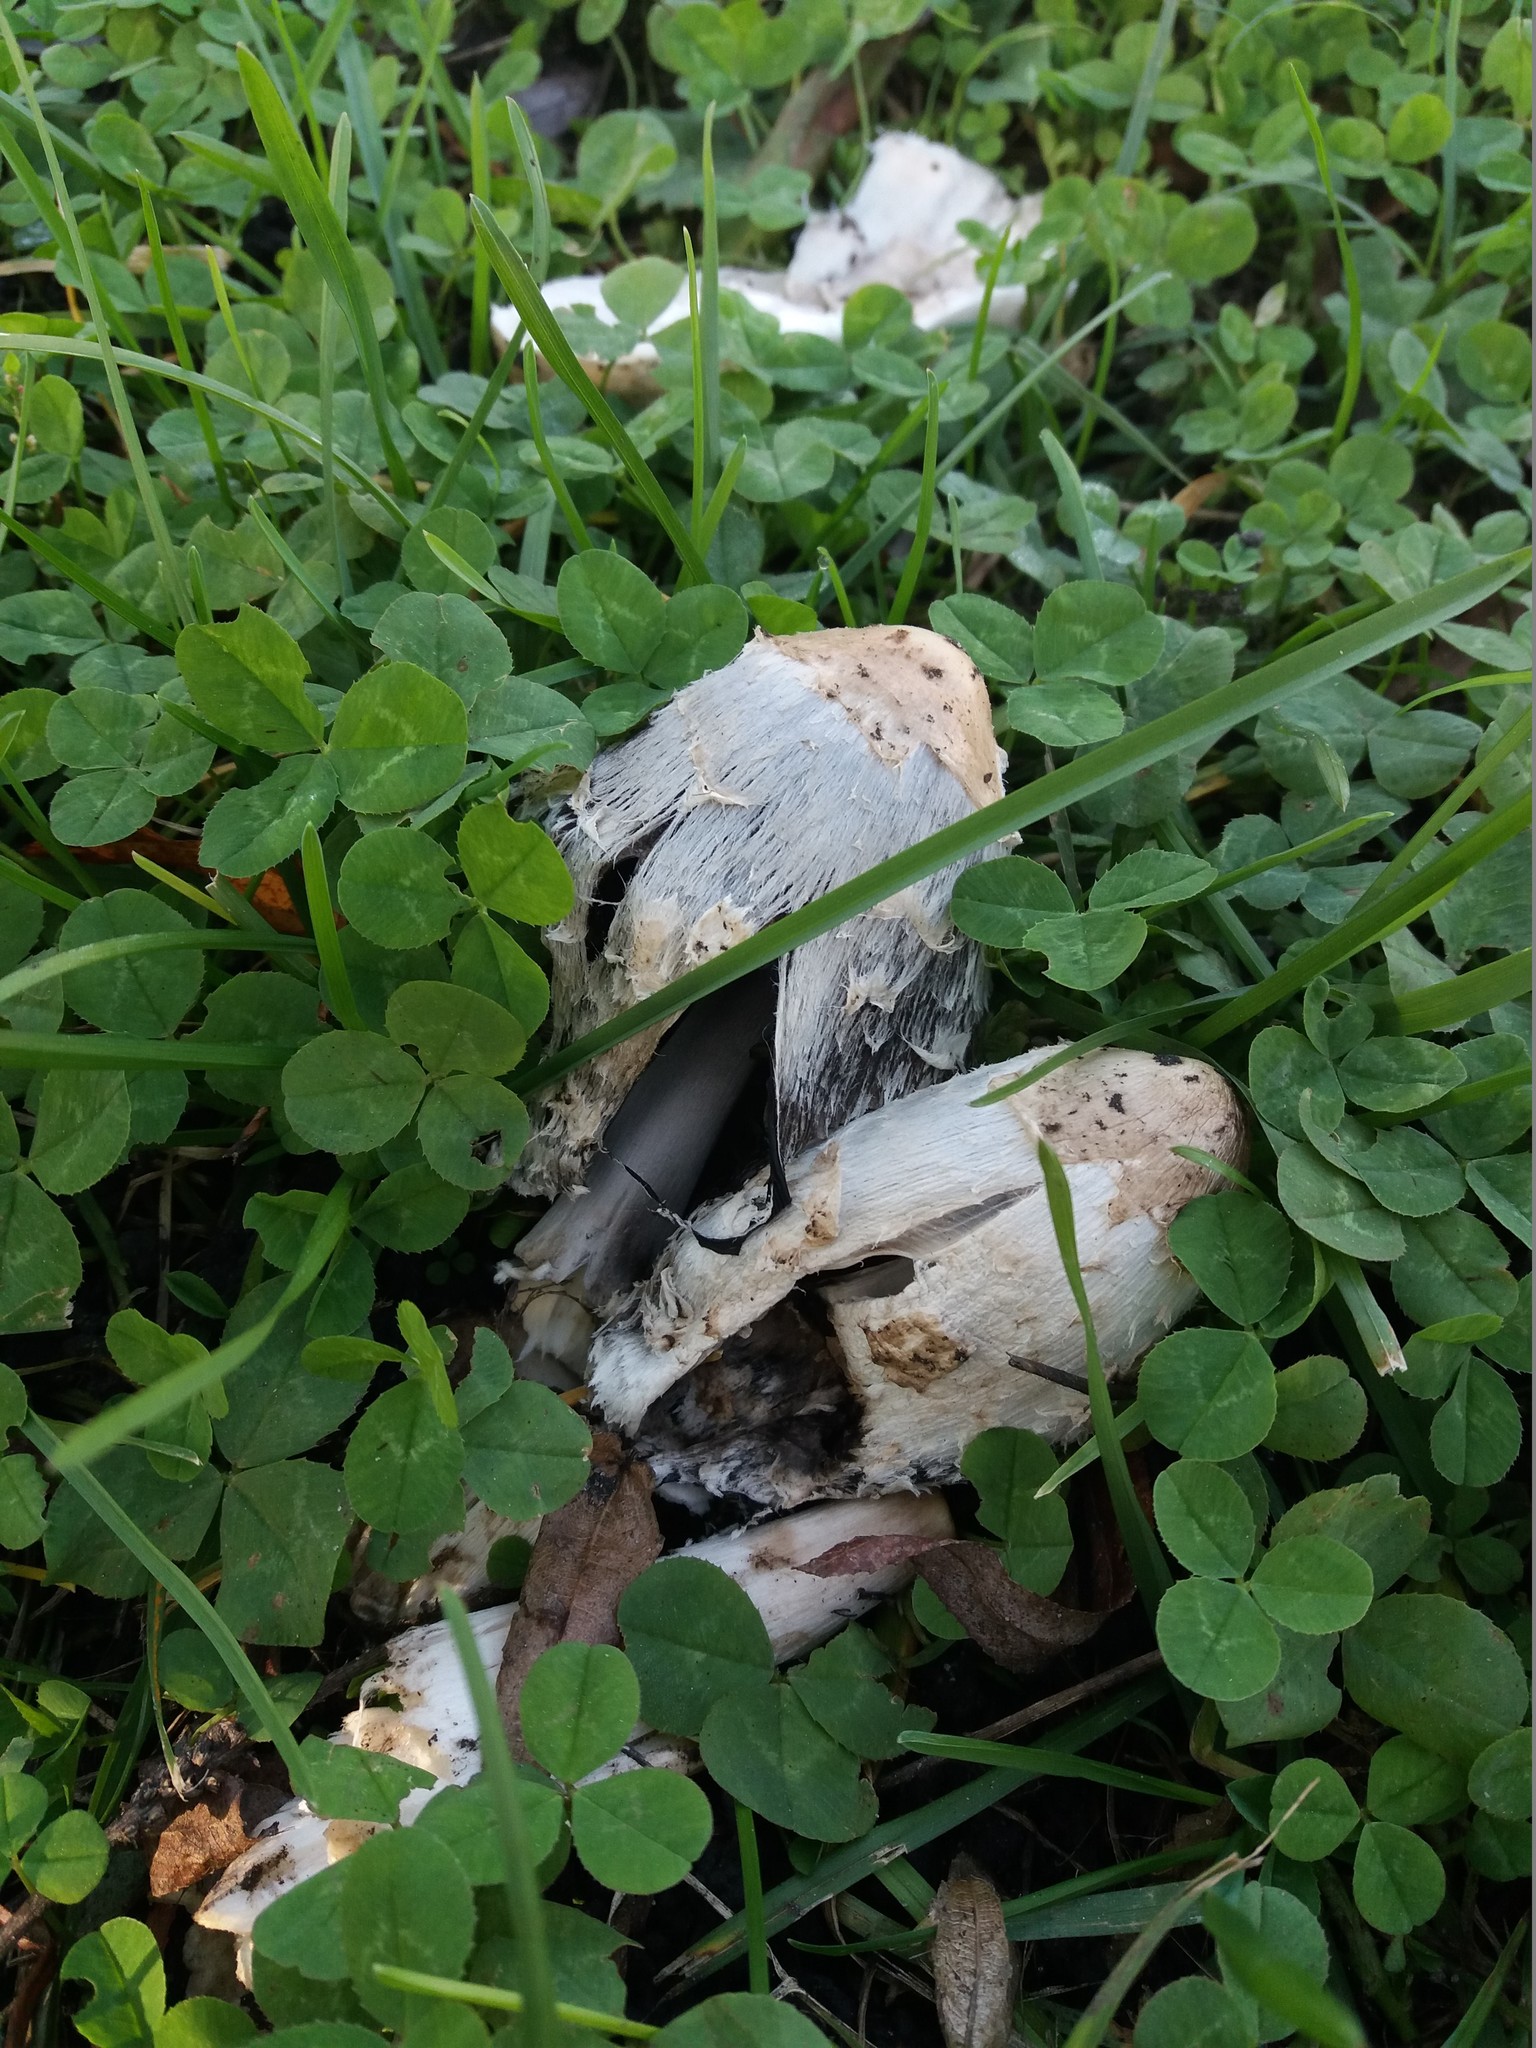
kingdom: Fungi
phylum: Basidiomycota
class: Agaricomycetes
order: Agaricales
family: Agaricaceae
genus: Coprinus
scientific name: Coprinus comatus
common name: Lawyer's wig
